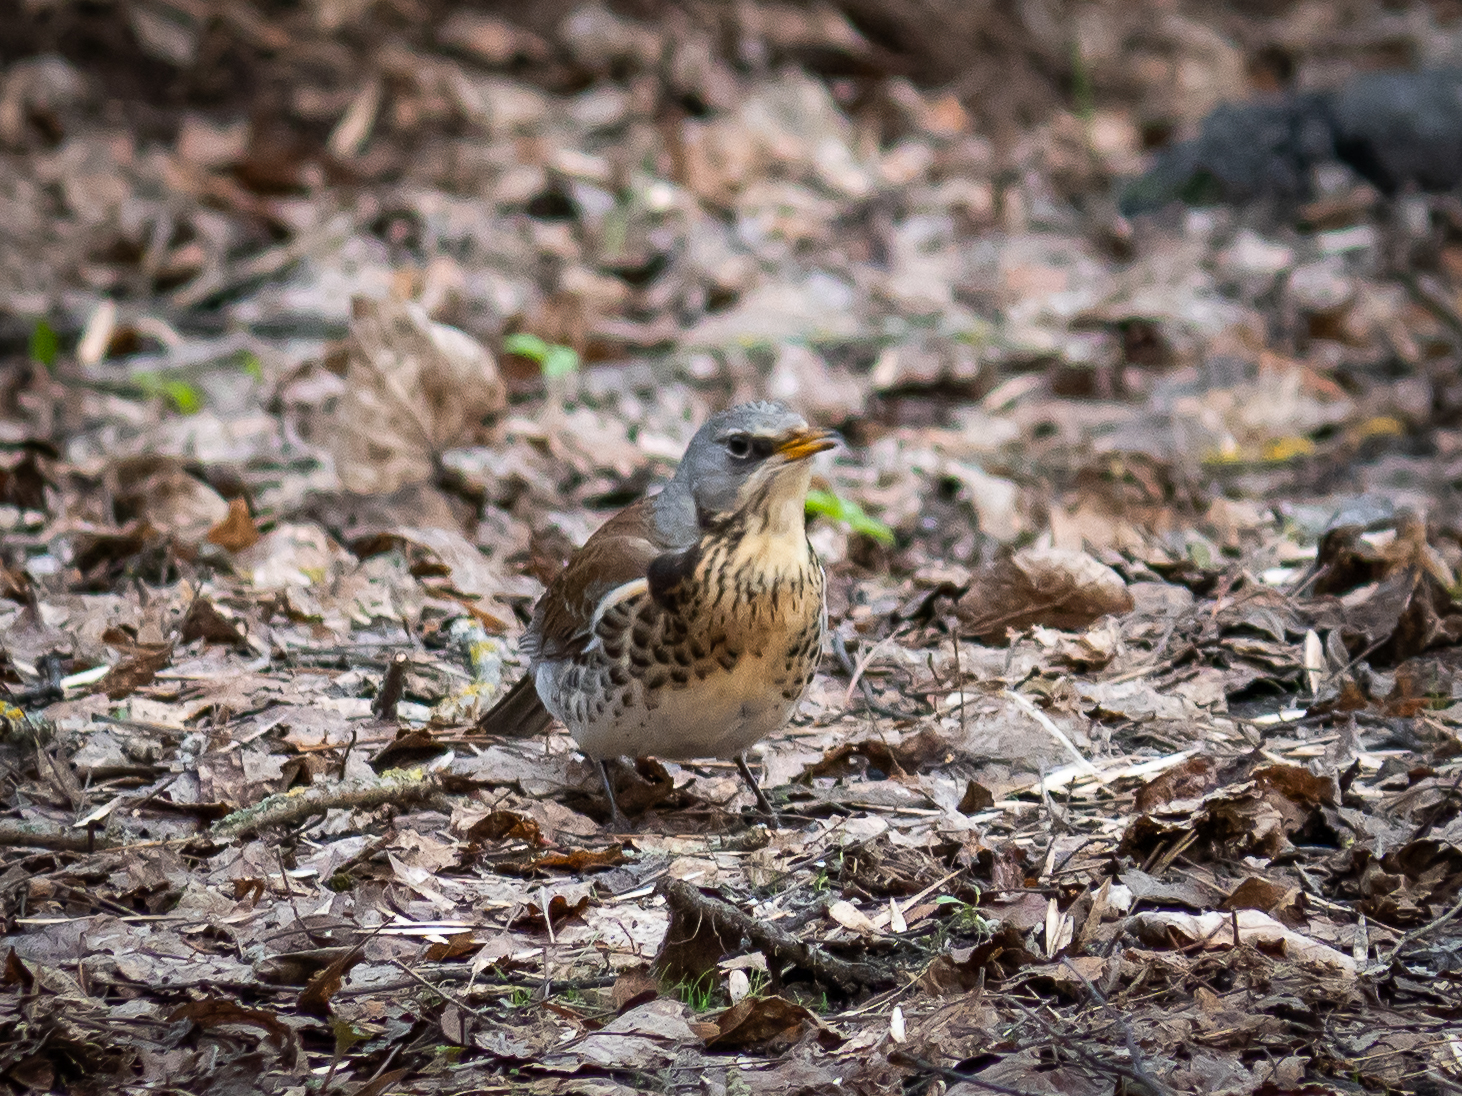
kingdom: Animalia
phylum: Chordata
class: Aves
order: Passeriformes
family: Turdidae
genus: Turdus
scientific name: Turdus pilaris
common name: Fieldfare
